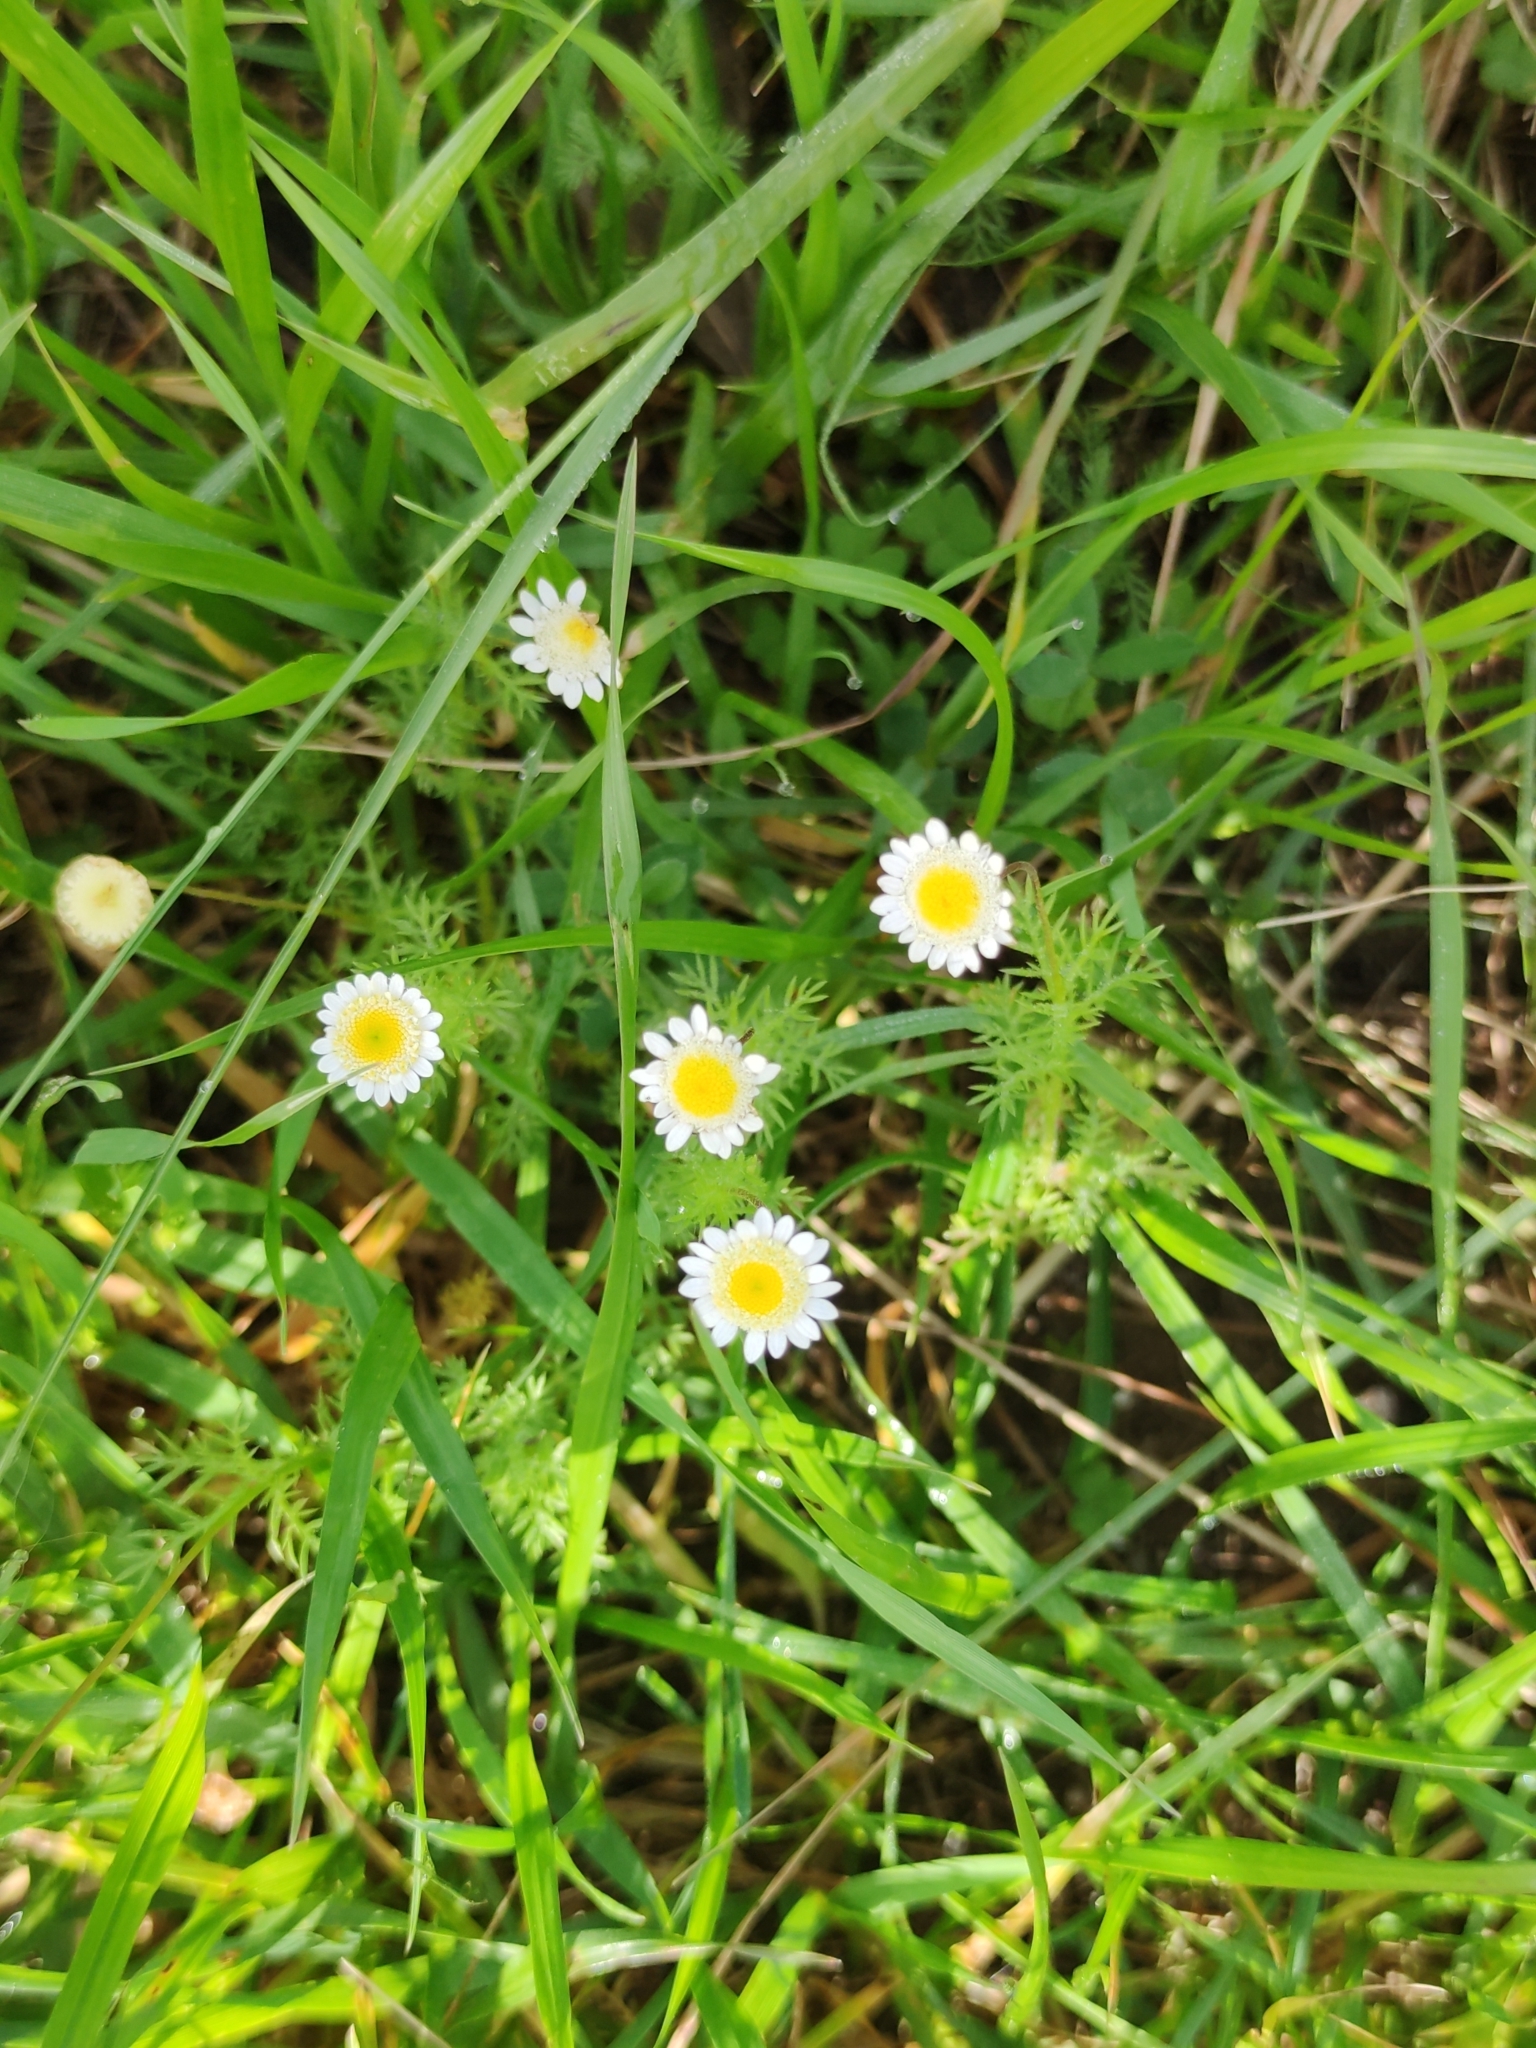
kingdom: Plantae
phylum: Tracheophyta
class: Magnoliopsida
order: Asterales
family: Asteraceae
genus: Cotula
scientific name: Cotula turbinata
